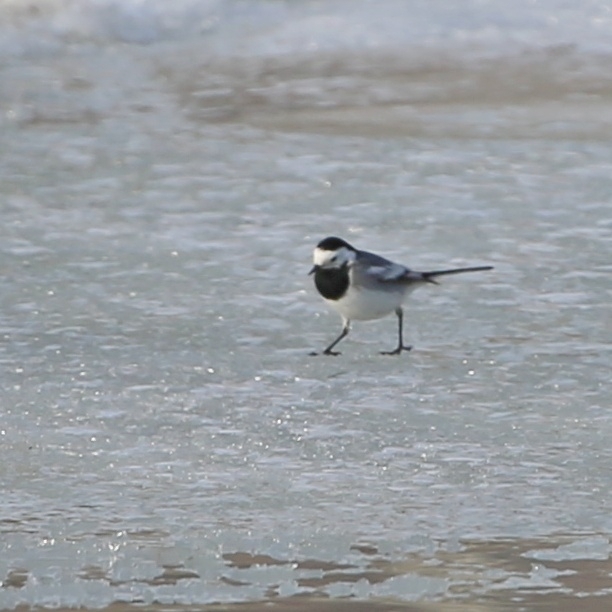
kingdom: Animalia
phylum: Chordata
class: Aves
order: Passeriformes
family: Motacillidae
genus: Motacilla
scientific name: Motacilla alba
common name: White wagtail
